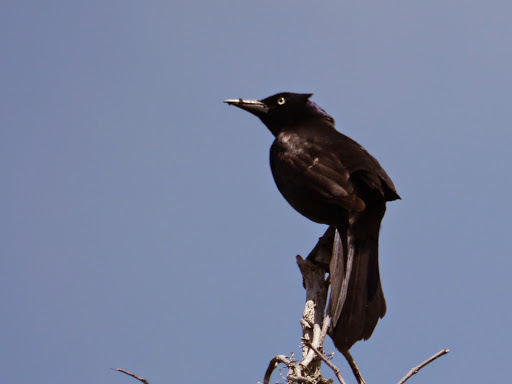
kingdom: Animalia
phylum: Chordata
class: Aves
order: Passeriformes
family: Icteridae
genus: Quiscalus
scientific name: Quiscalus quiscula
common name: Common grackle
